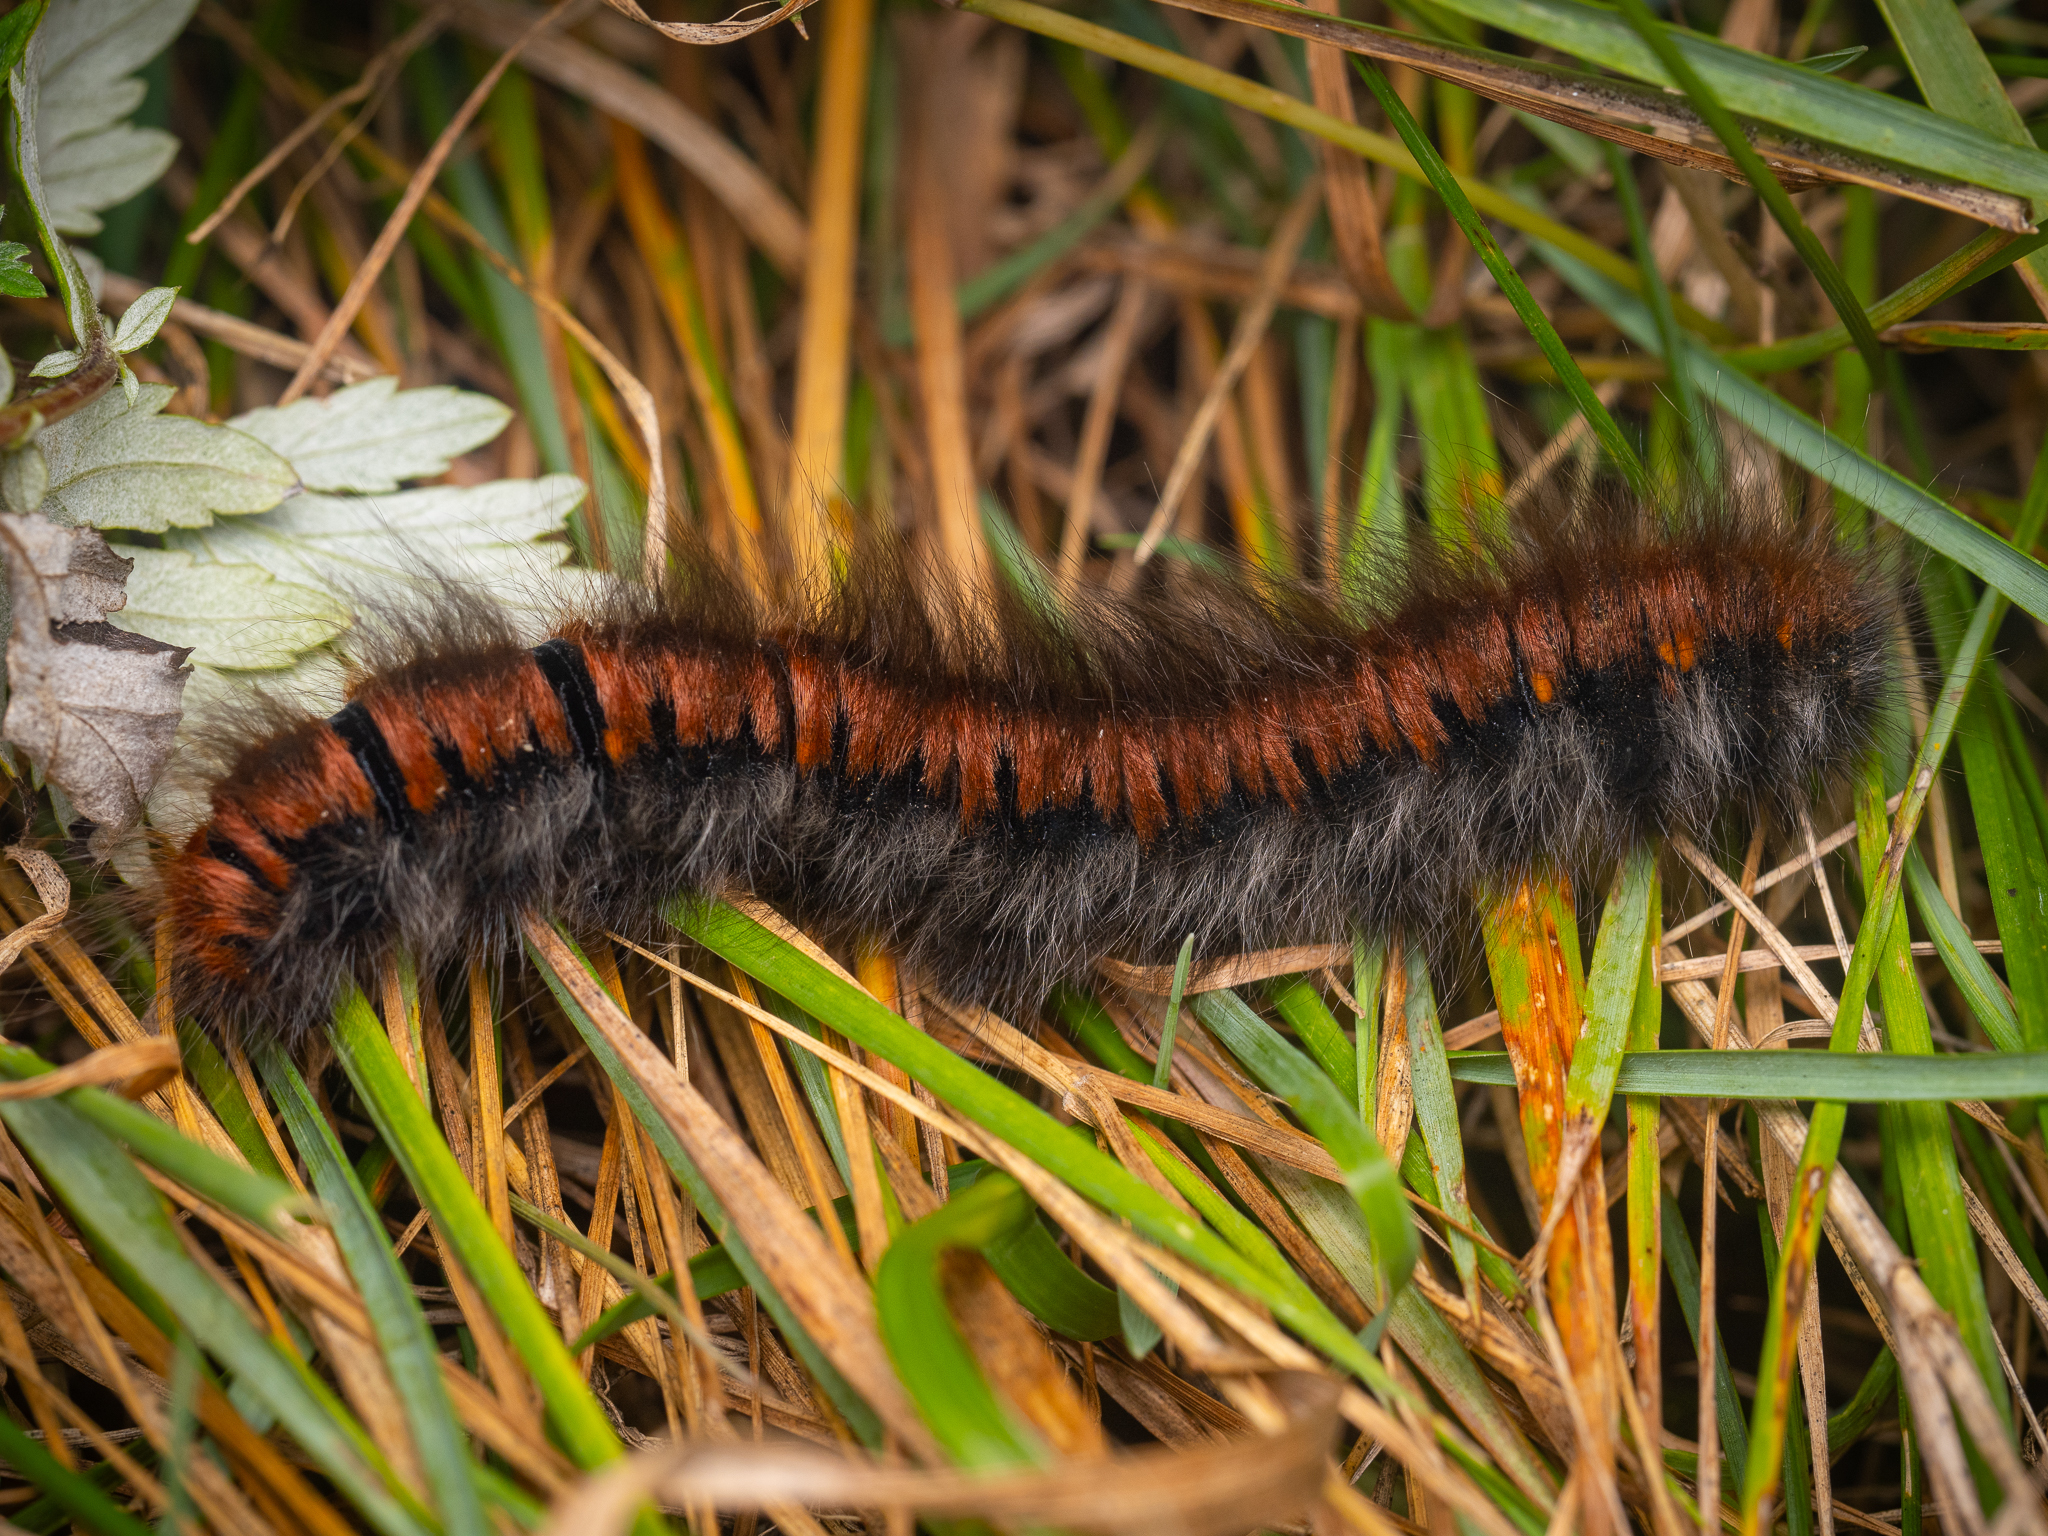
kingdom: Animalia
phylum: Arthropoda
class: Insecta
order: Lepidoptera
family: Lasiocampidae
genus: Macrothylacia
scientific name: Macrothylacia rubi
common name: Fox moth
